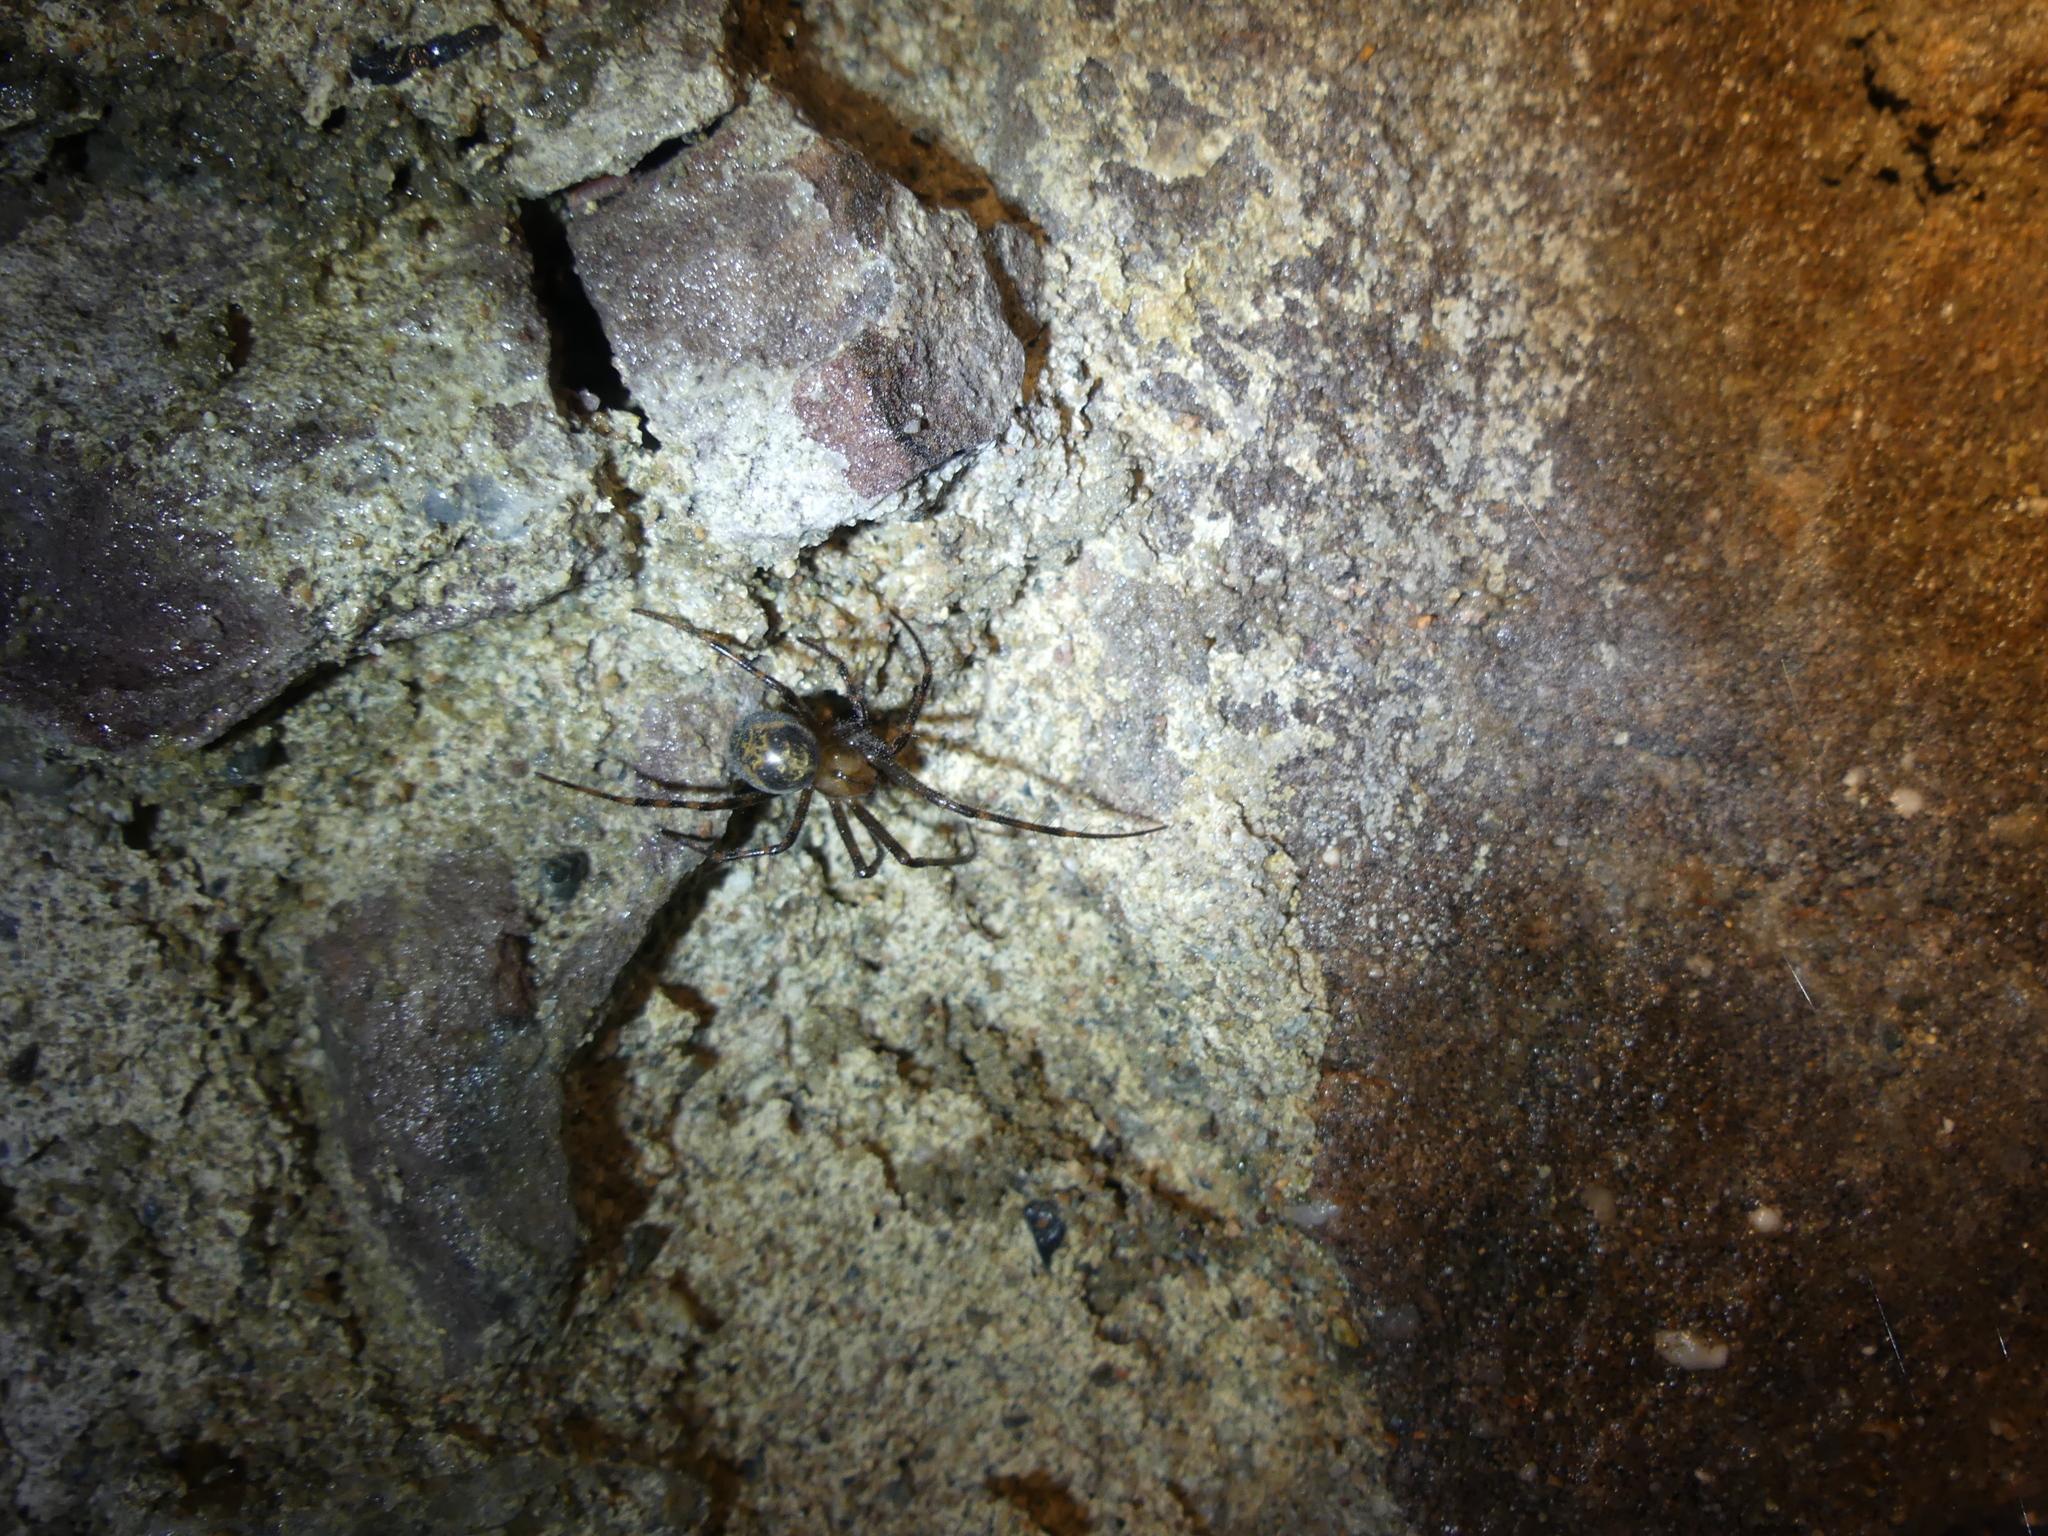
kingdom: Animalia
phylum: Arthropoda
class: Arachnida
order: Araneae
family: Tetragnathidae
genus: Meta
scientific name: Meta menardi
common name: Cave spider
